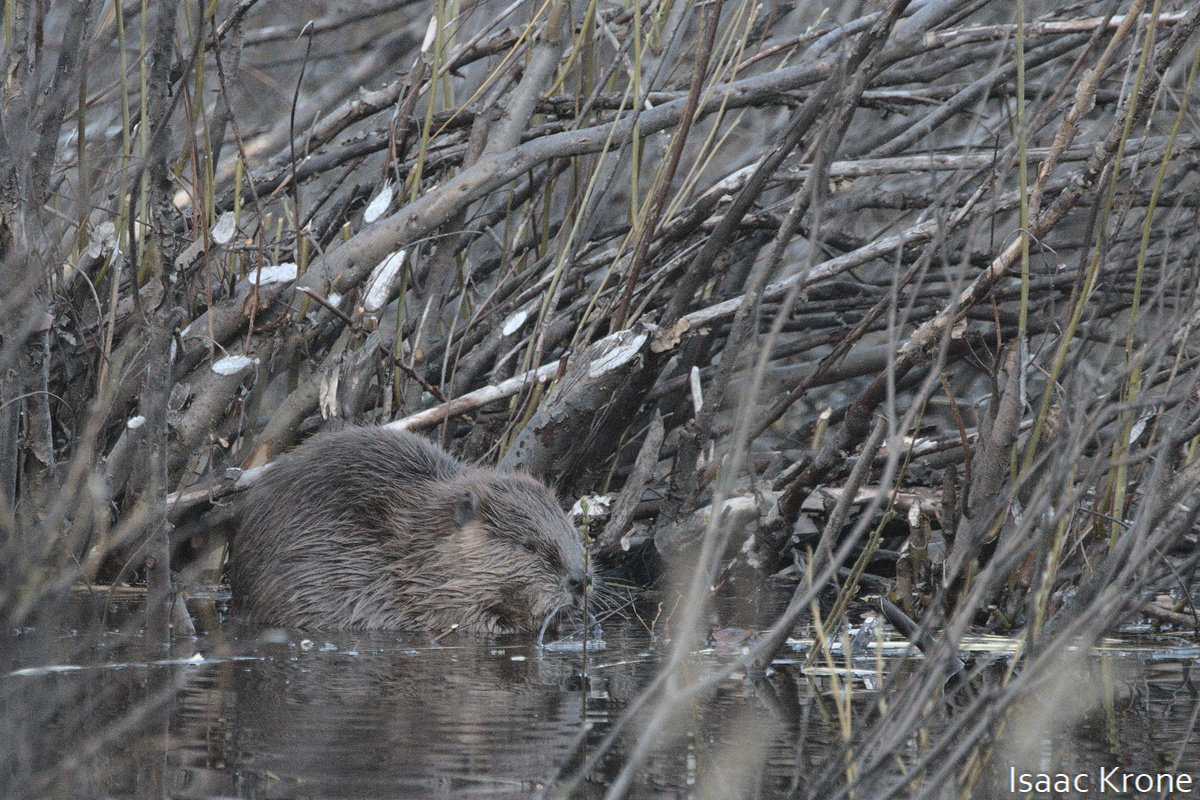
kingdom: Animalia
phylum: Chordata
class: Mammalia
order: Rodentia
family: Castoridae
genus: Castor
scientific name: Castor canadensis
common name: American beaver
